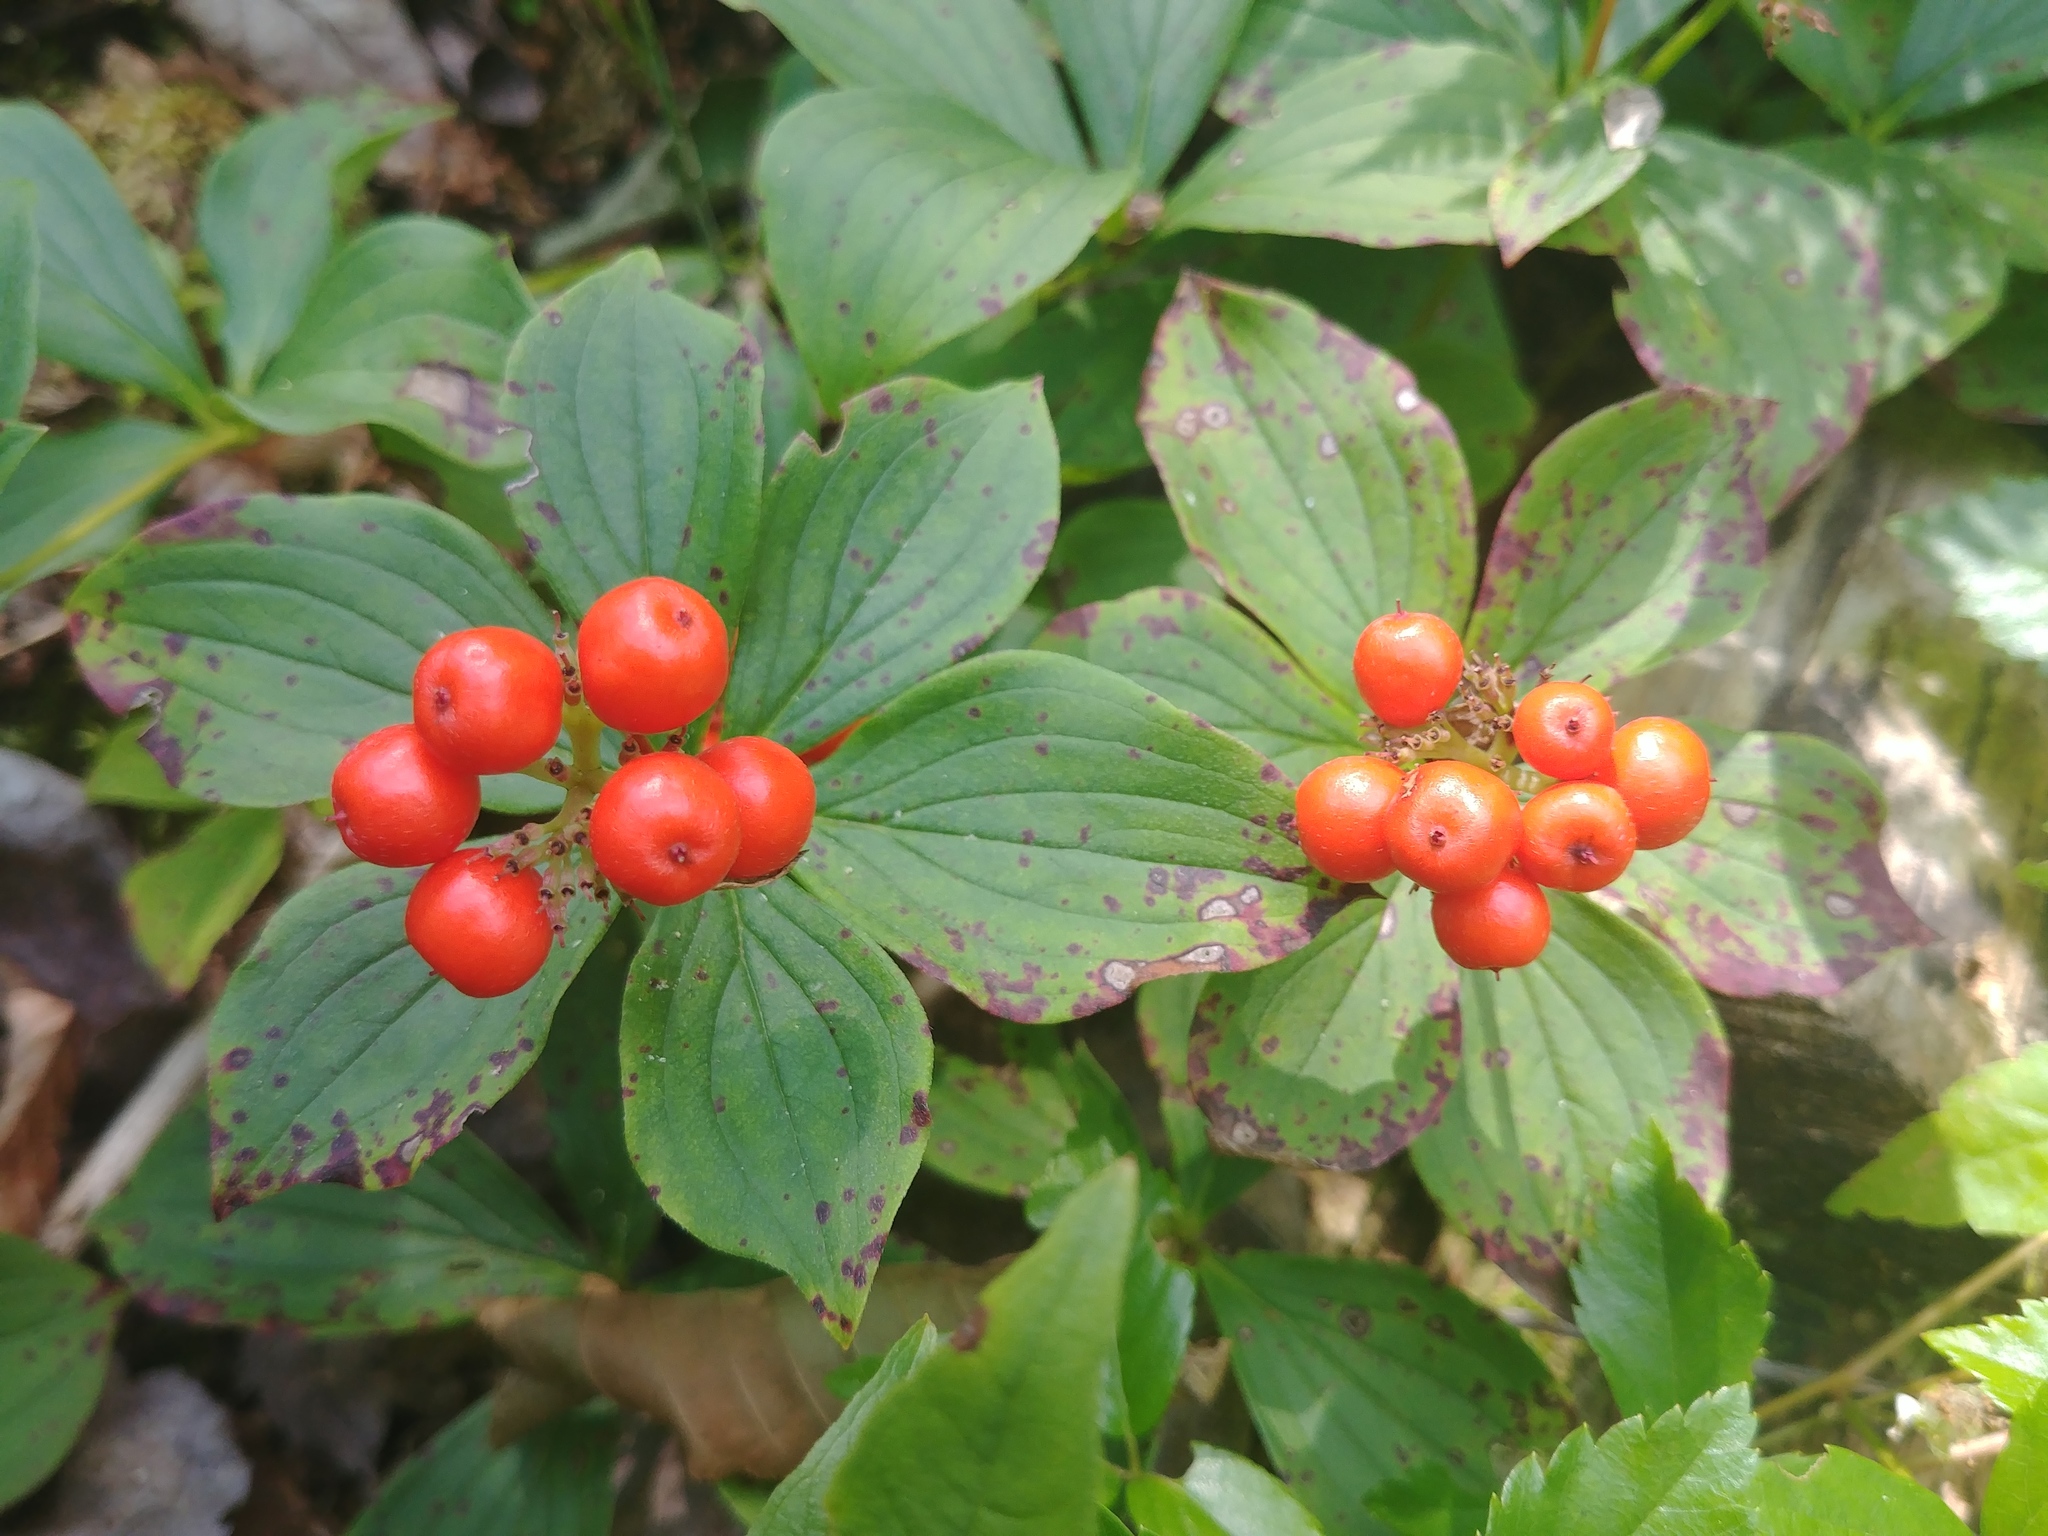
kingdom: Plantae
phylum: Tracheophyta
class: Magnoliopsida
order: Cornales
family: Cornaceae
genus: Cornus
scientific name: Cornus canadensis
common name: Creeping dogwood
